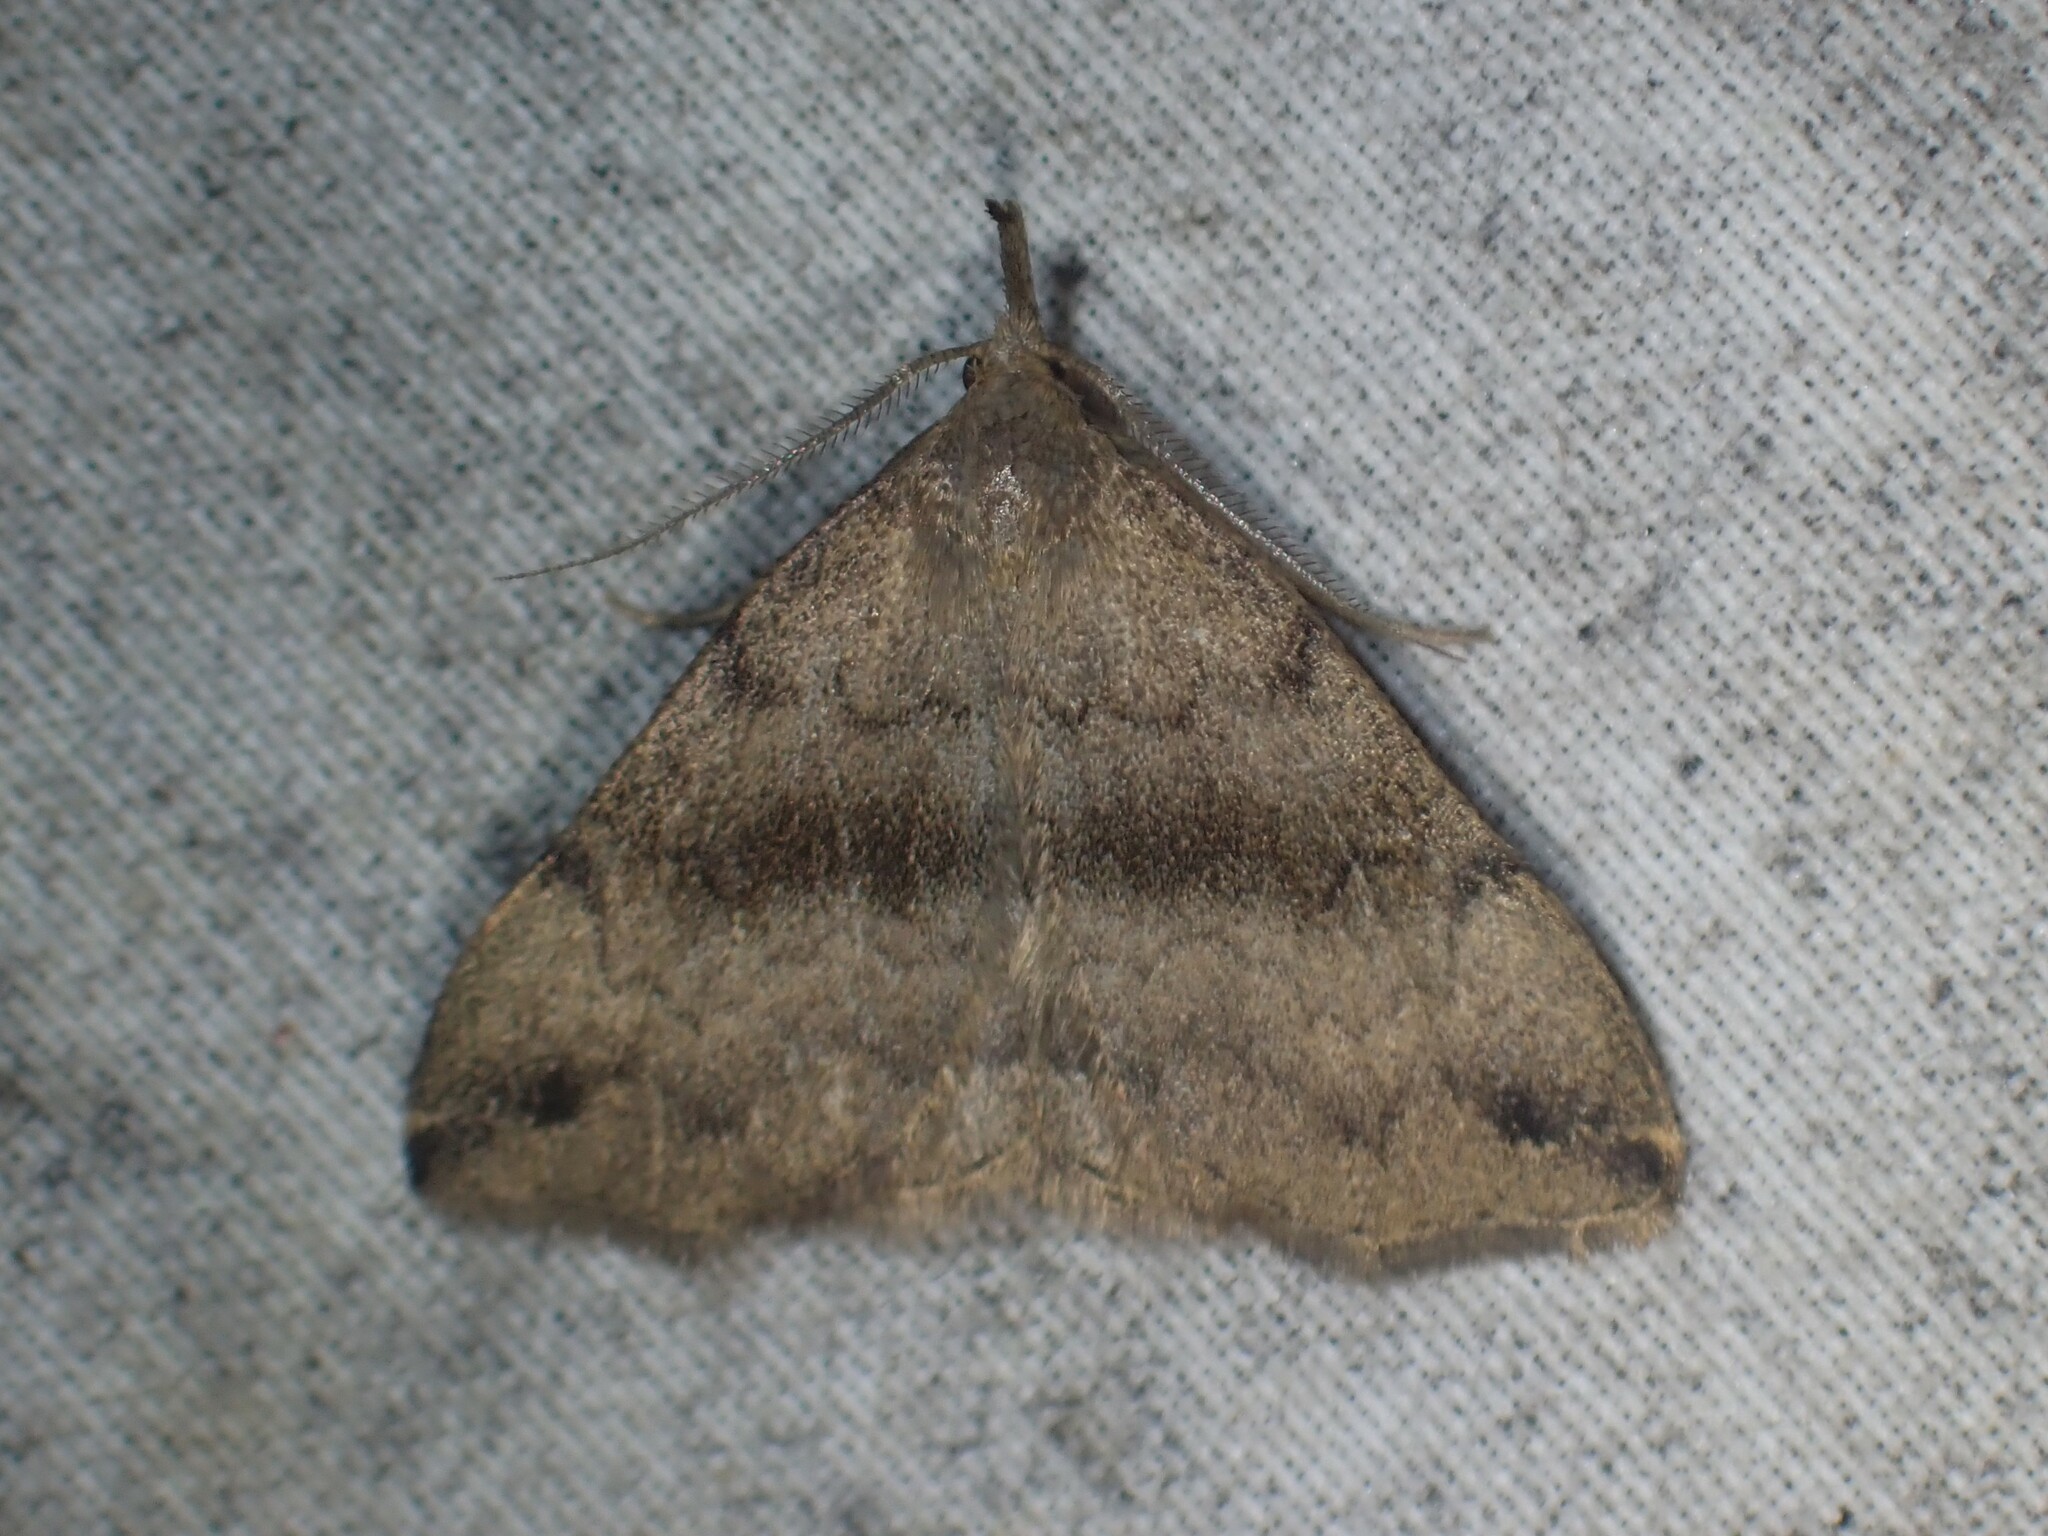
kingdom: Animalia
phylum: Arthropoda
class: Insecta
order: Lepidoptera
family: Erebidae
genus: Phalaenostola
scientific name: Phalaenostola eumelusalis
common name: Dark phalaenostola moth
